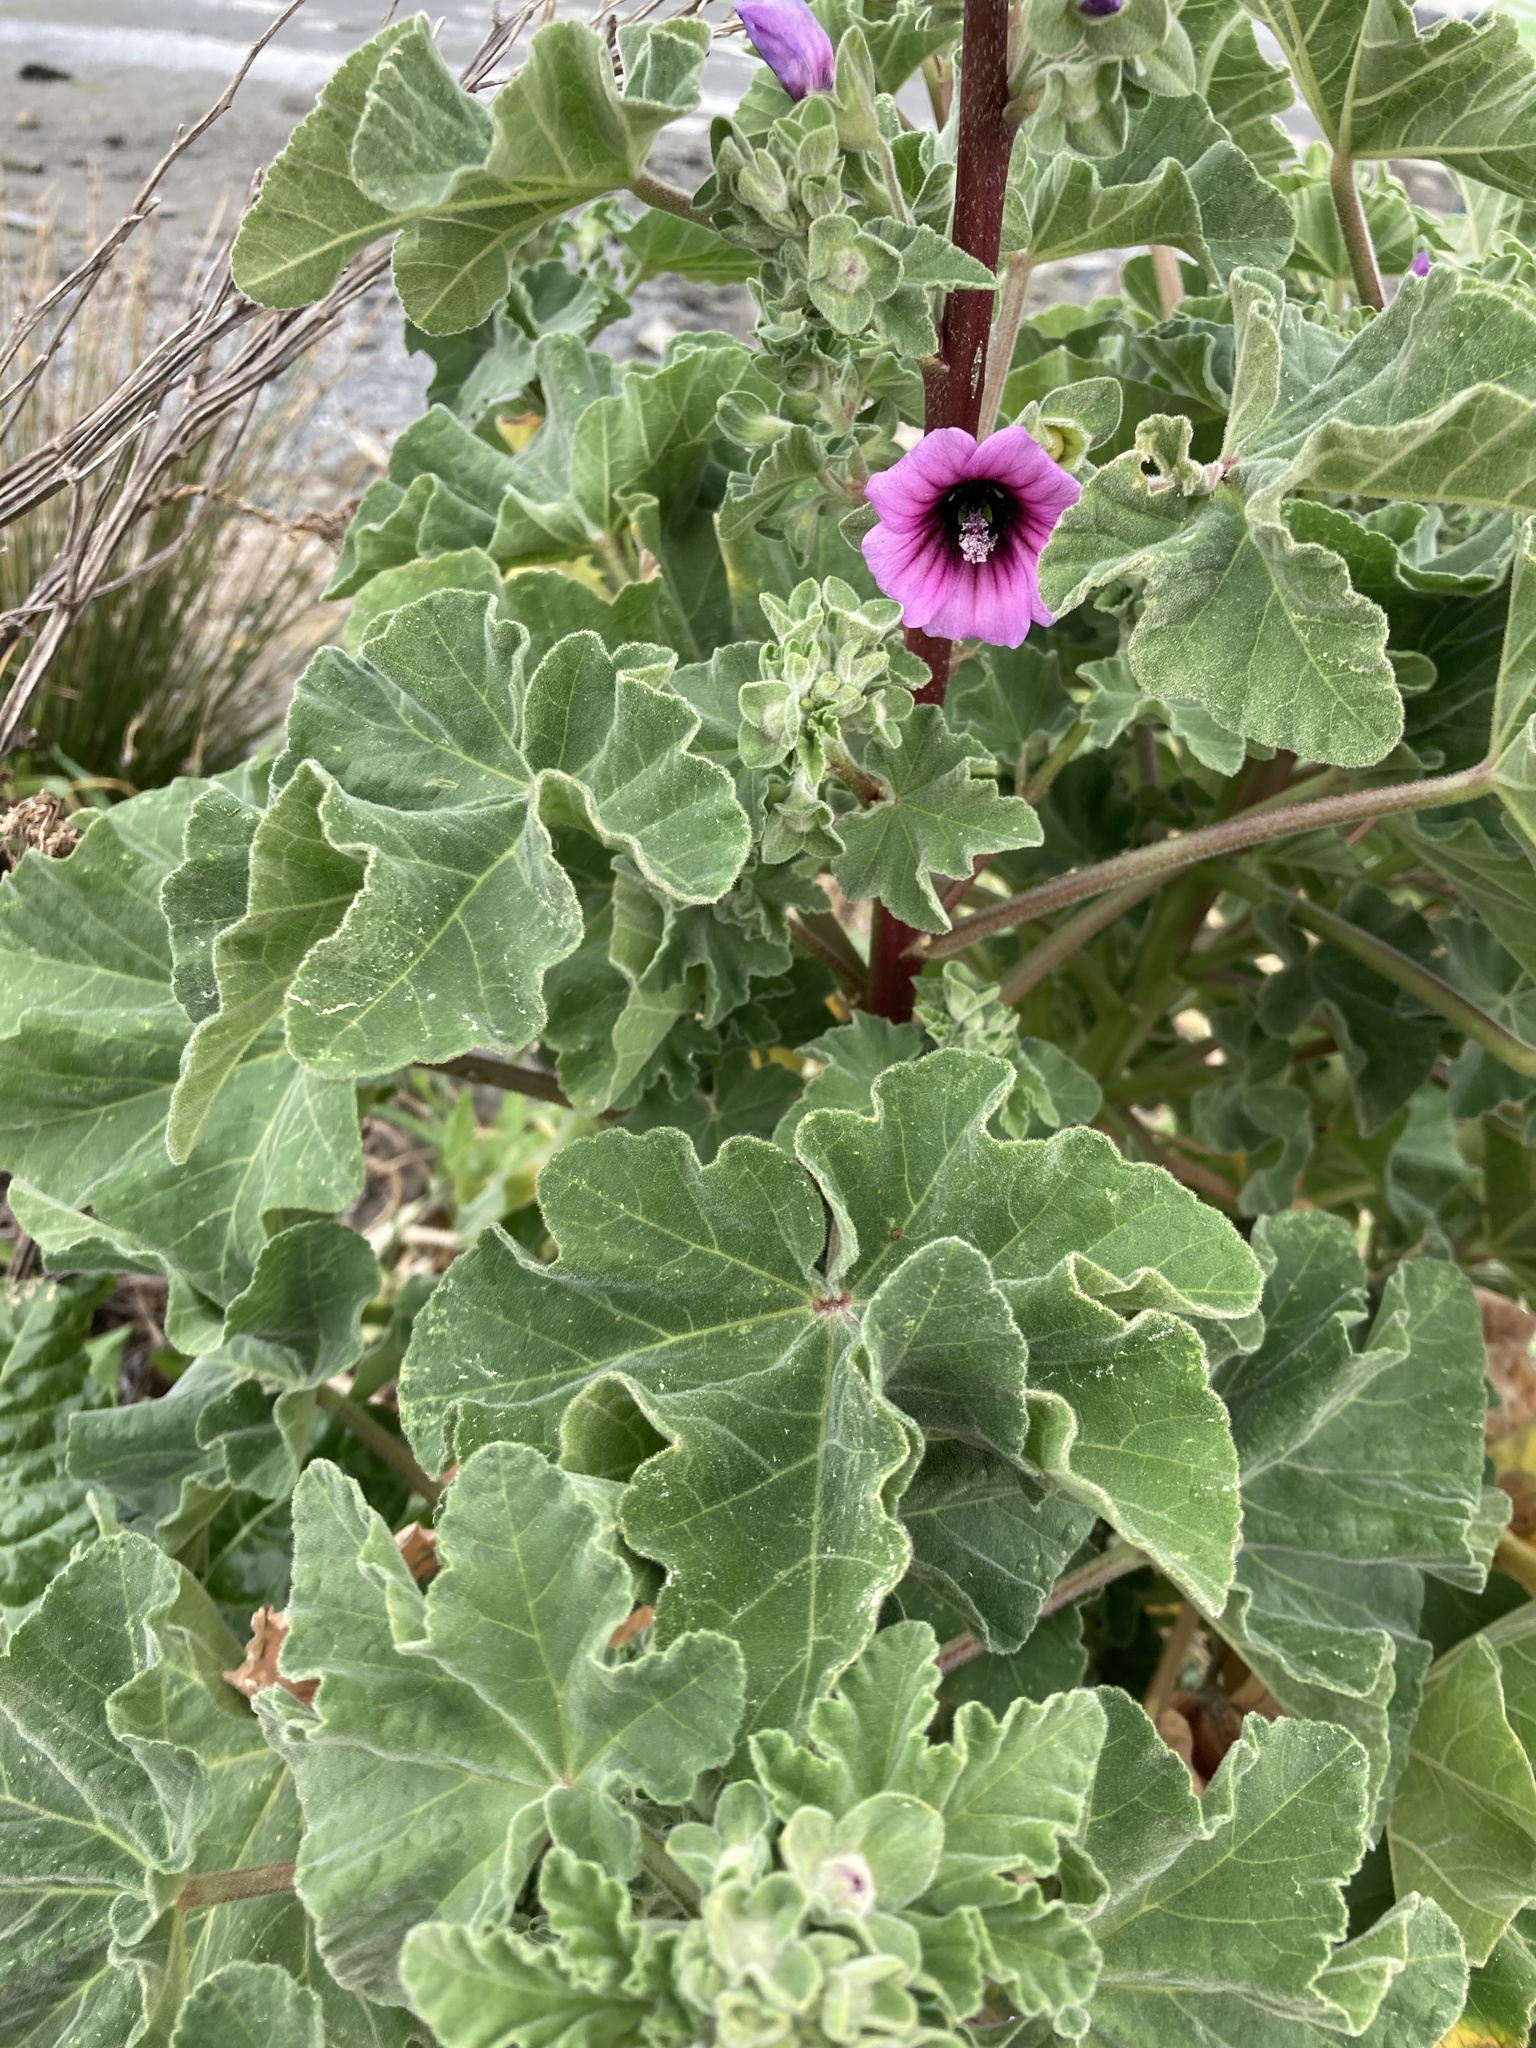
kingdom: Plantae
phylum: Tracheophyta
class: Magnoliopsida
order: Malvales
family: Malvaceae
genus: Malva
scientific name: Malva arborea
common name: Tree mallow
